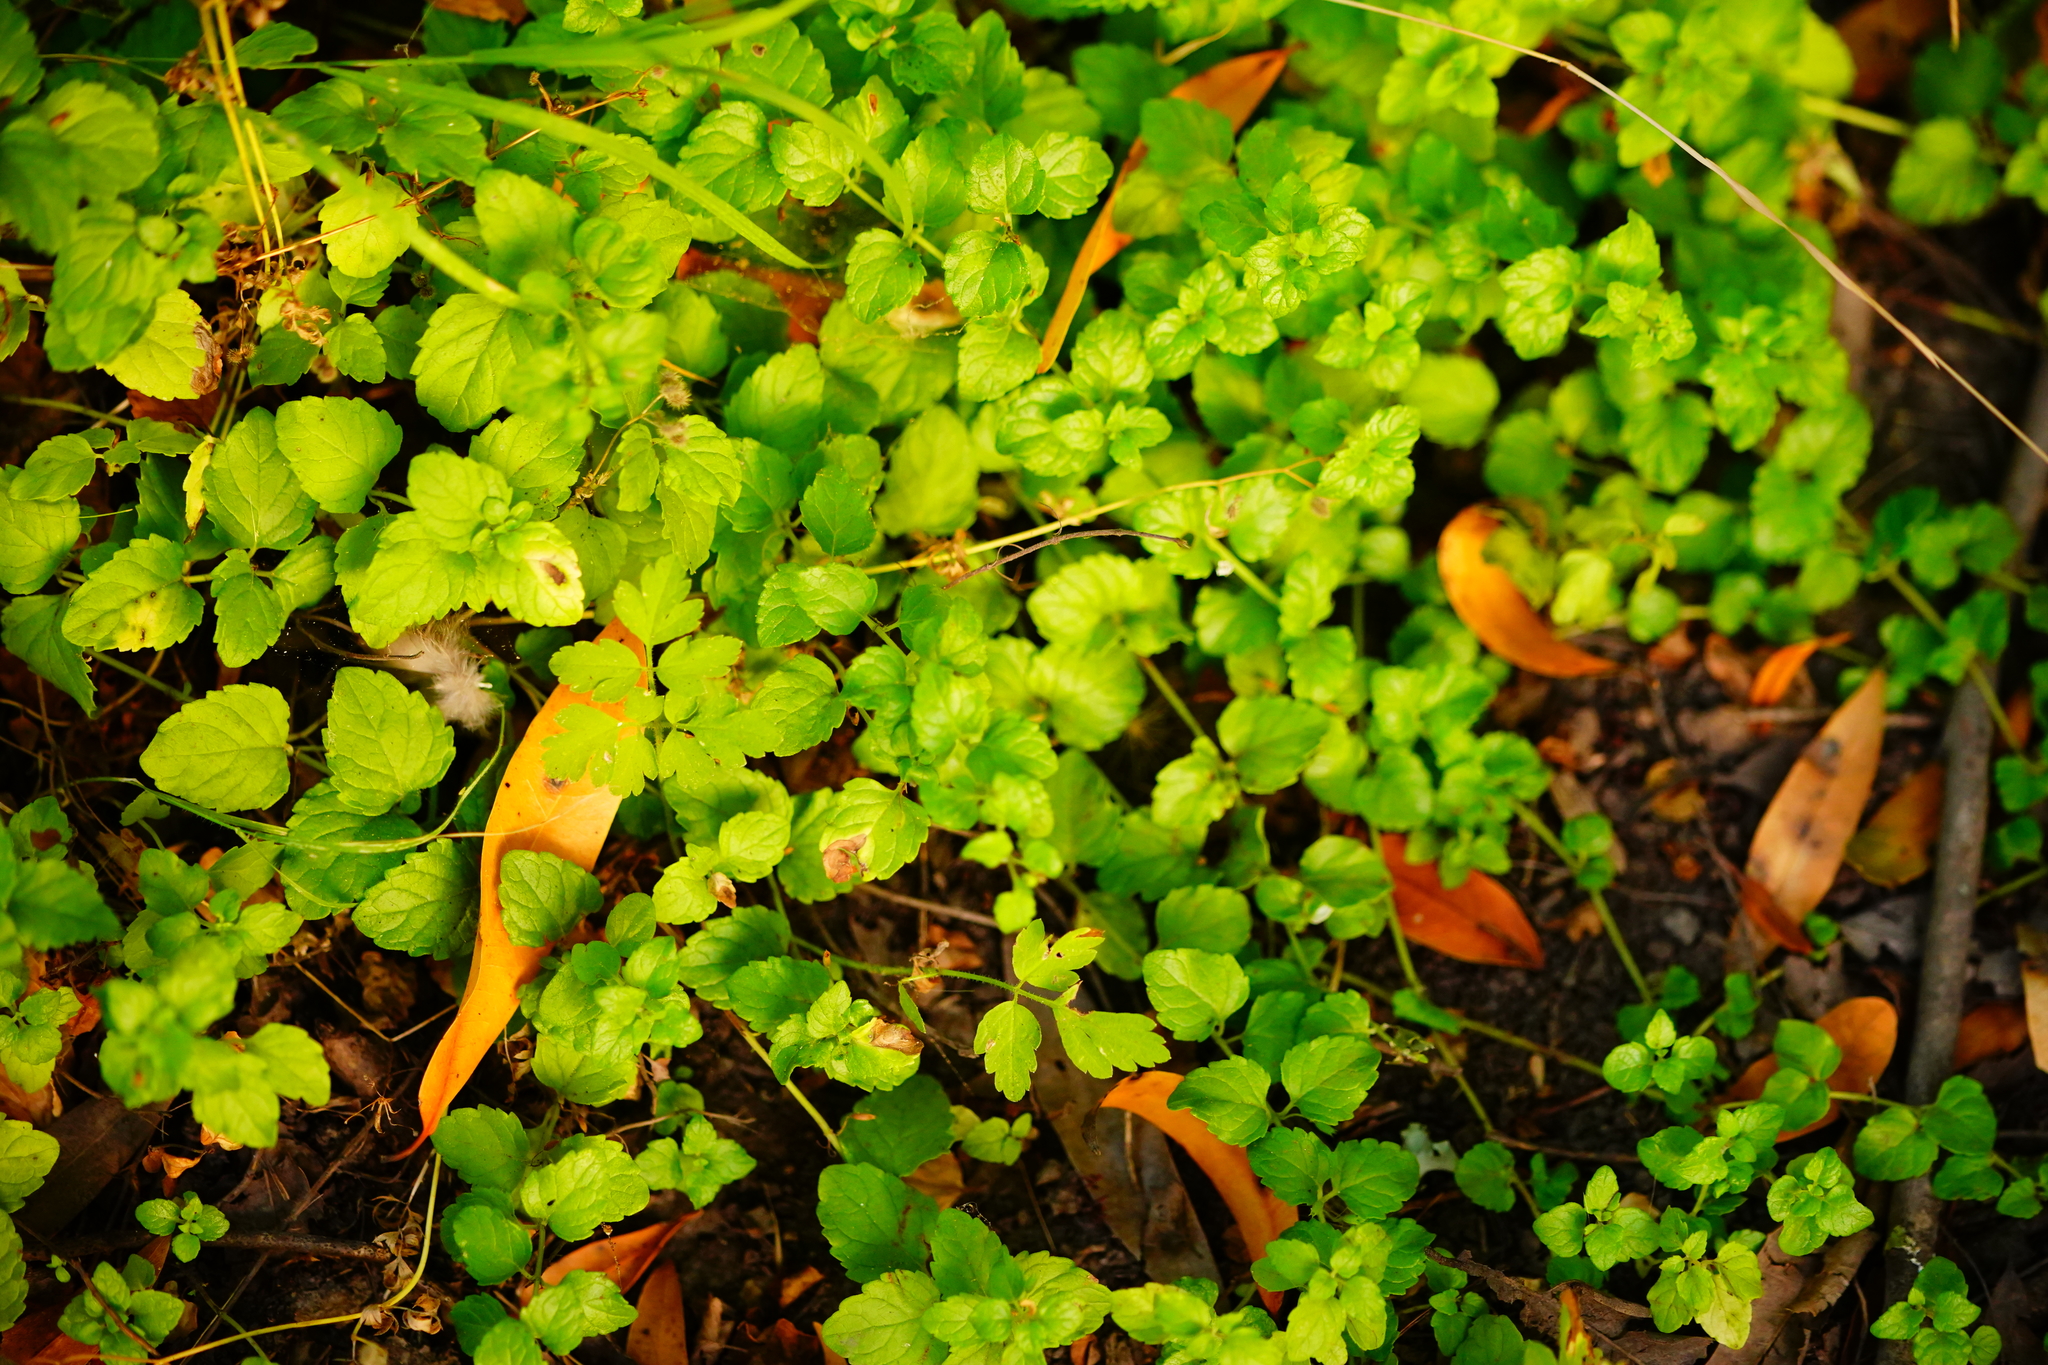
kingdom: Plantae
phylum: Tracheophyta
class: Magnoliopsida
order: Lamiales
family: Lamiaceae
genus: Micromeria
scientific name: Micromeria douglasii
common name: Yerba buena
